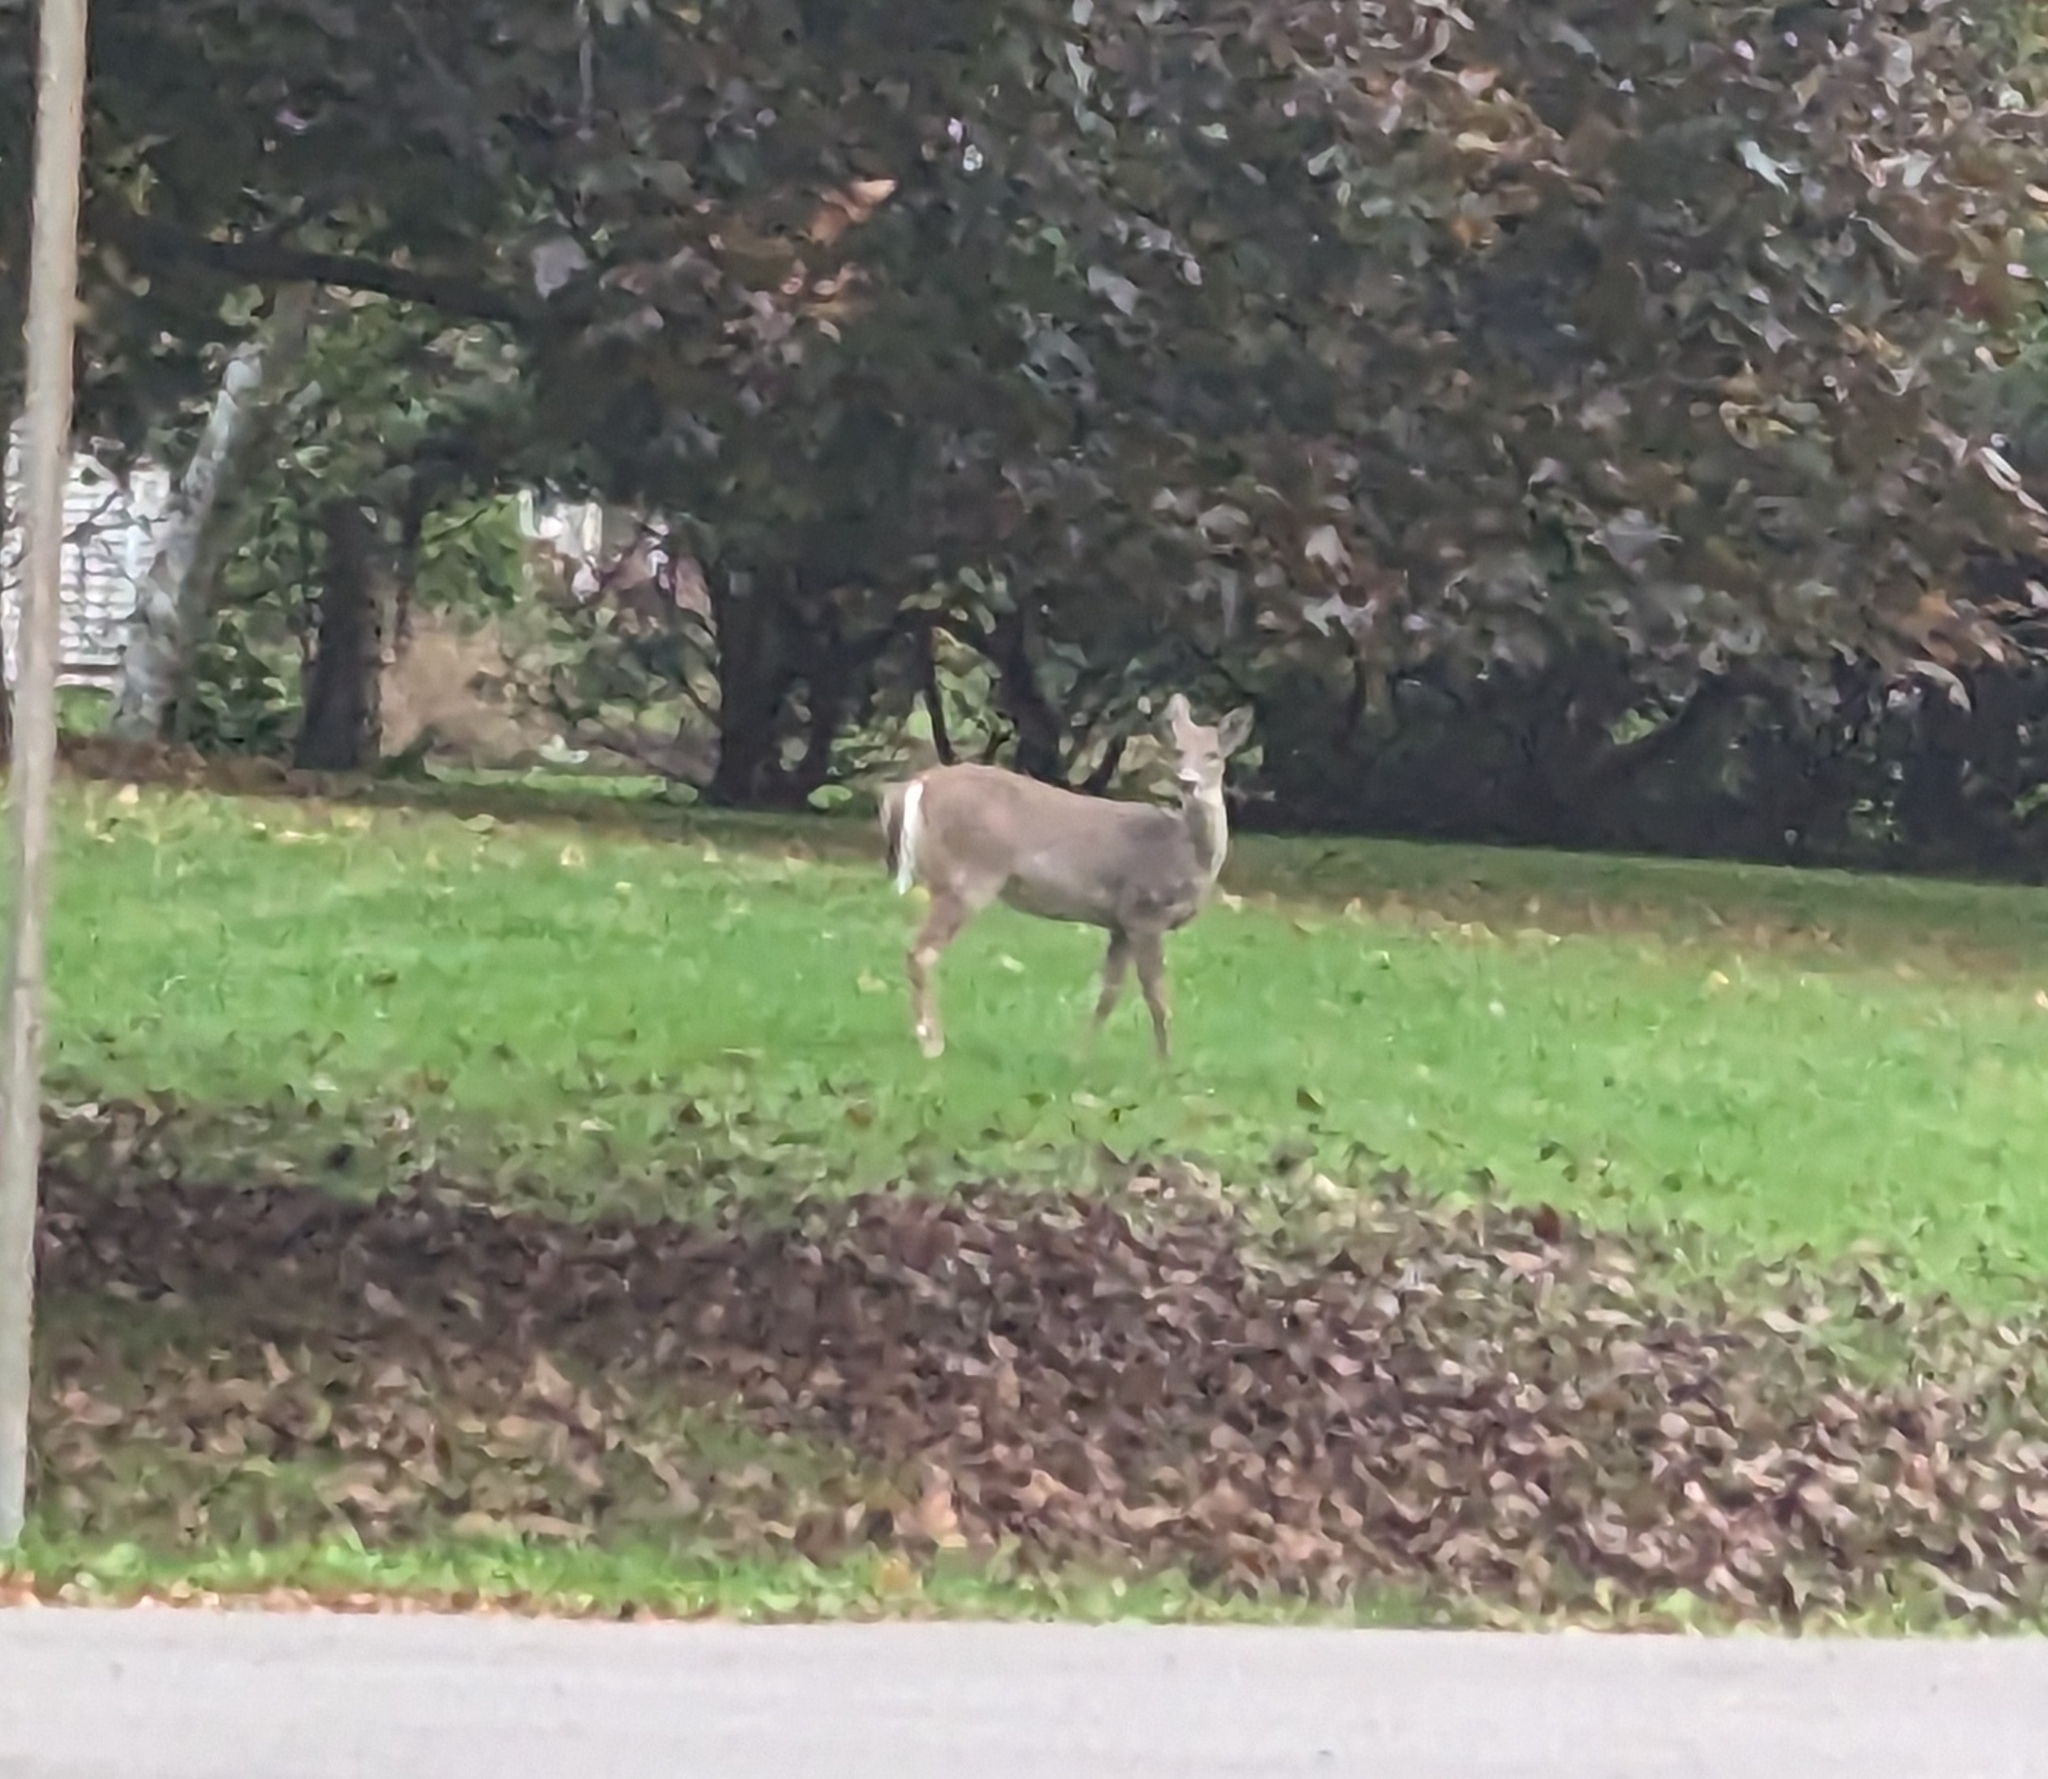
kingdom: Animalia
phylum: Chordata
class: Mammalia
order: Artiodactyla
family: Cervidae
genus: Odocoileus
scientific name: Odocoileus virginianus
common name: White-tailed deer
